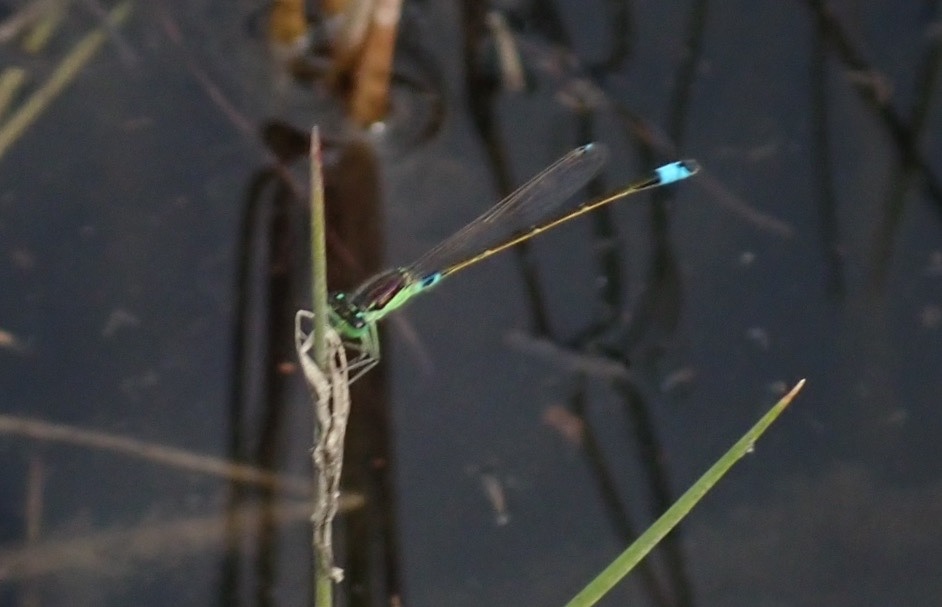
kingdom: Animalia
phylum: Arthropoda
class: Insecta
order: Odonata
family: Coenagrionidae
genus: Ischnura
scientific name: Ischnura senegalensis
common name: Tropical bluetail
